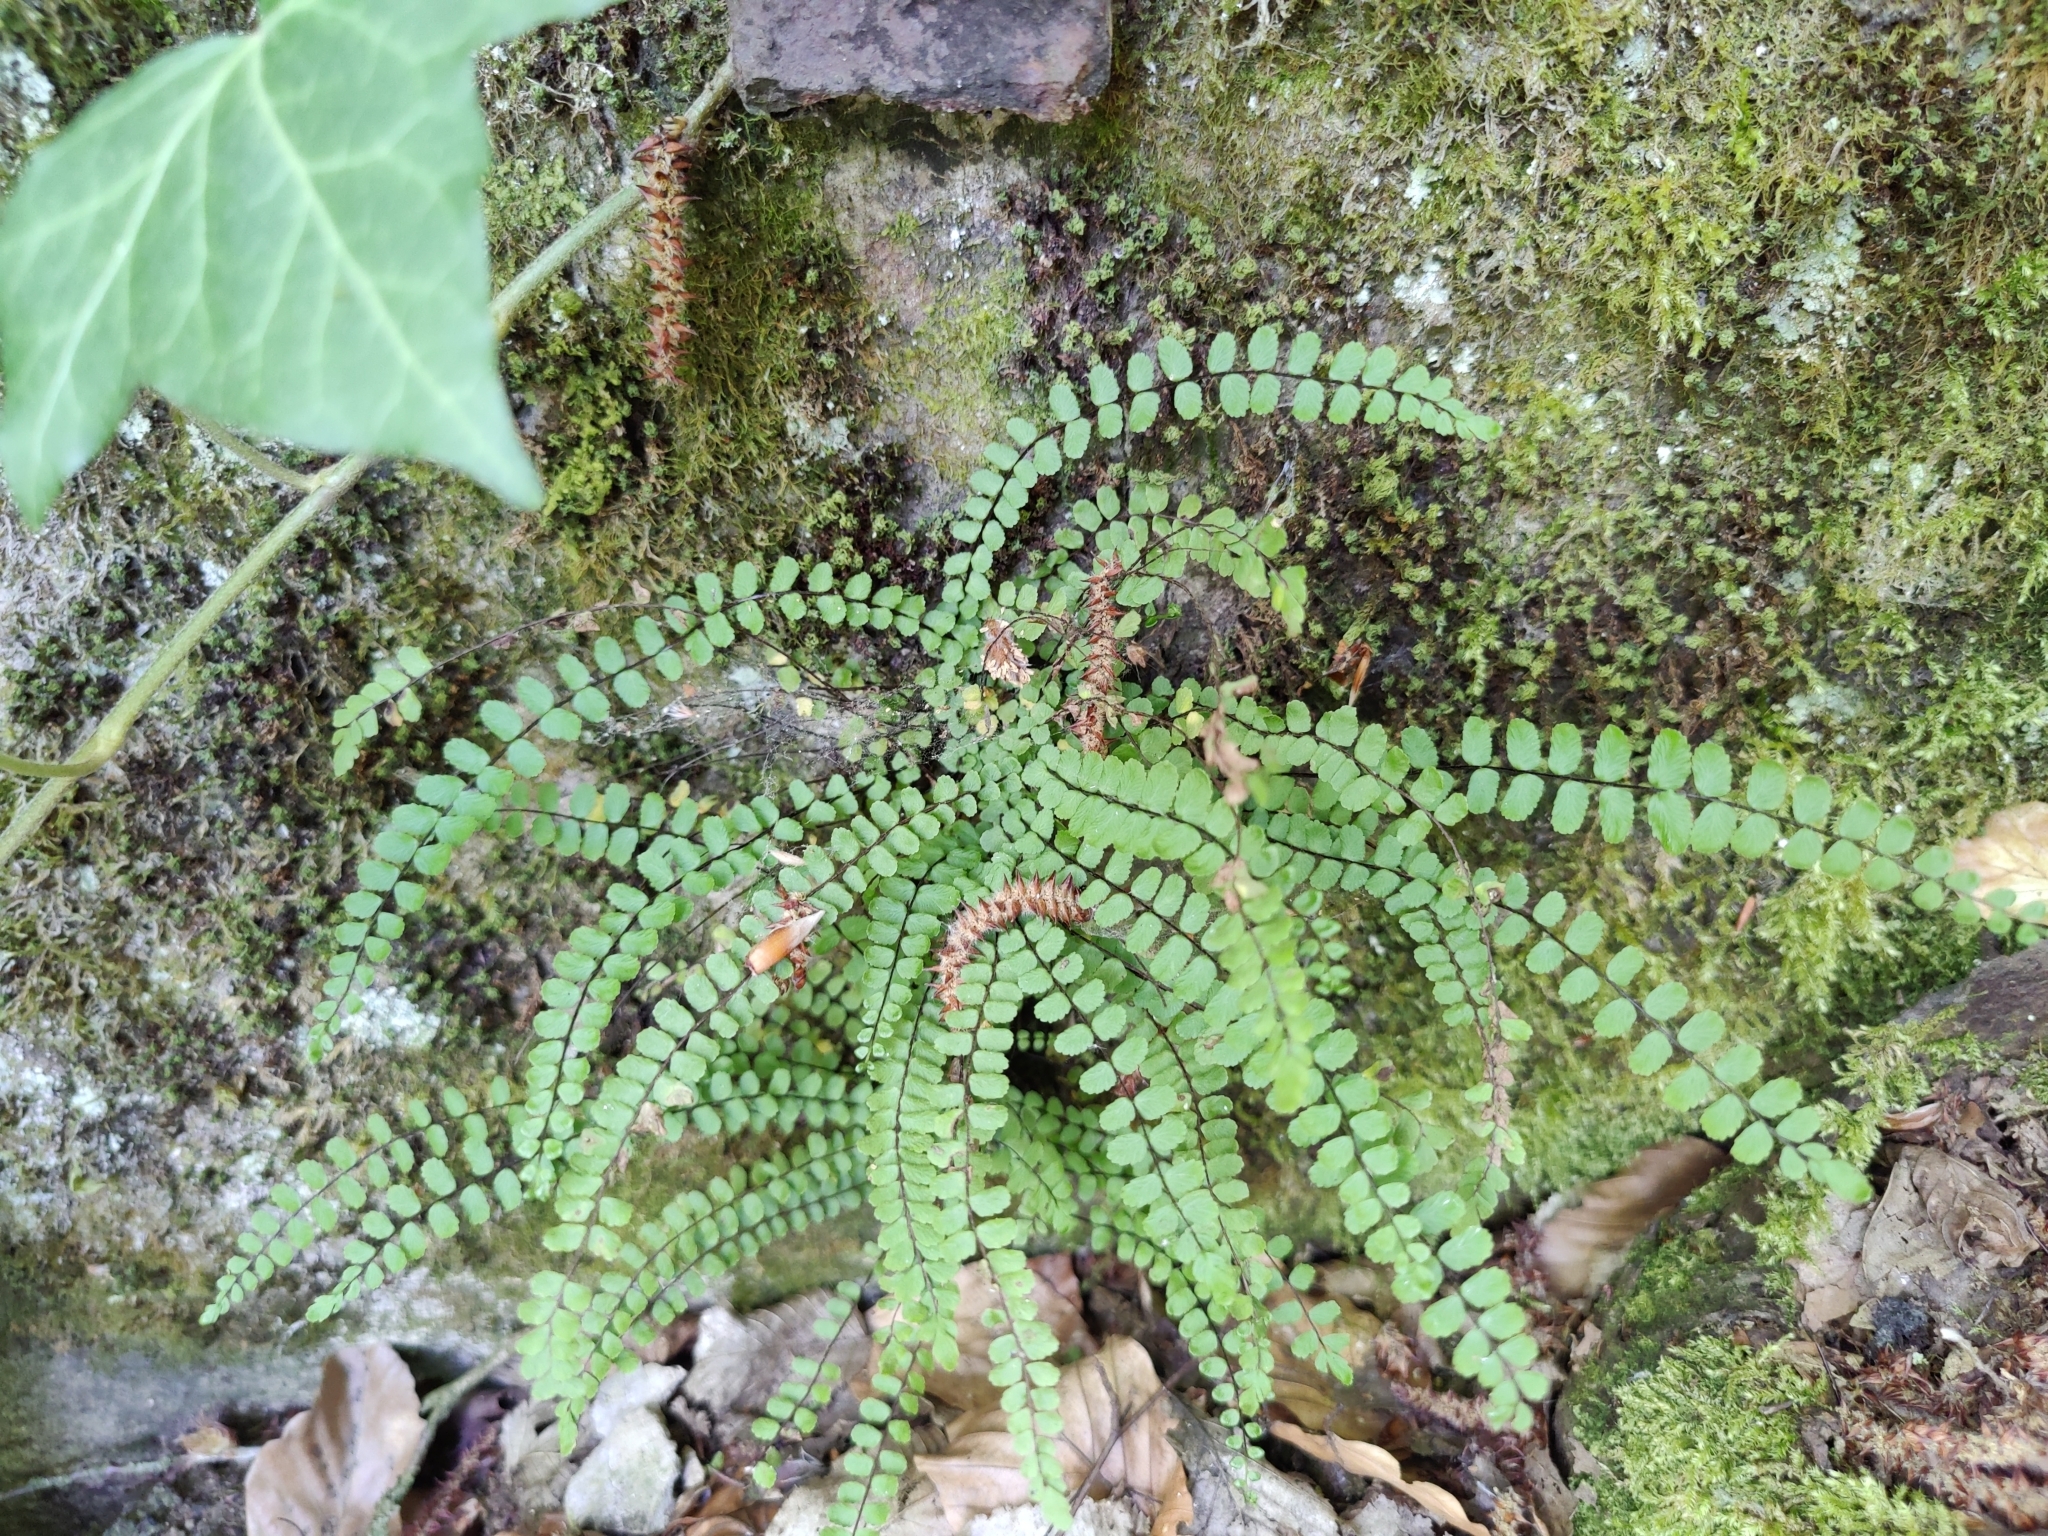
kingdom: Plantae
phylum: Tracheophyta
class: Polypodiopsida
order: Polypodiales
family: Aspleniaceae
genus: Asplenium
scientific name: Asplenium trichomanes
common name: Maidenhair spleenwort
